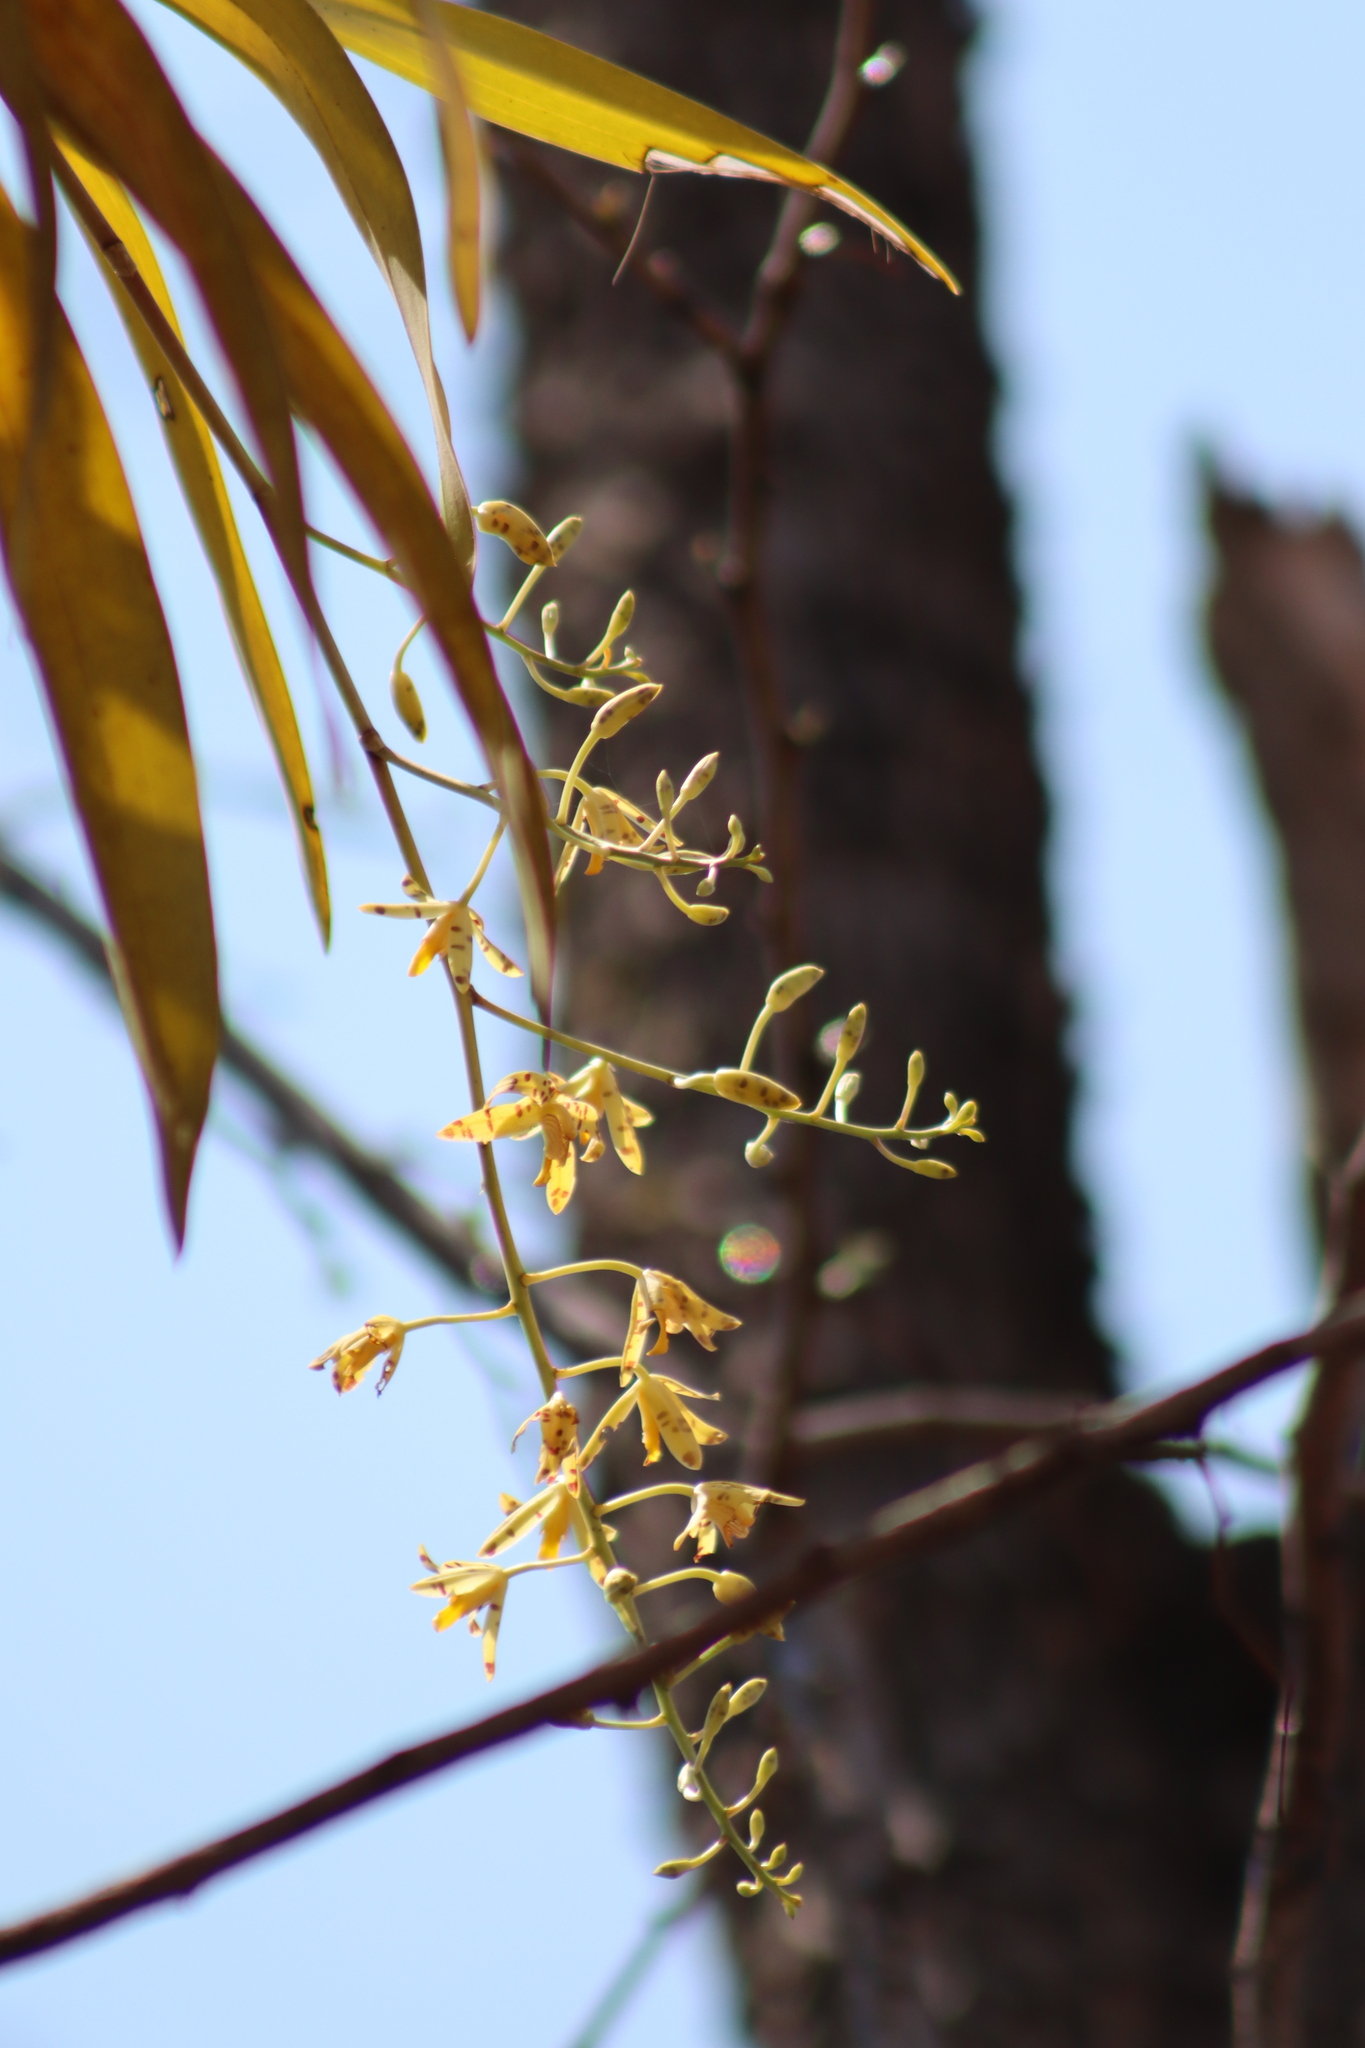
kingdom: Plantae
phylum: Tracheophyta
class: Liliopsida
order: Asparagales
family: Orchidaceae
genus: Ansellia
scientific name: Ansellia africana
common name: African ansellia
